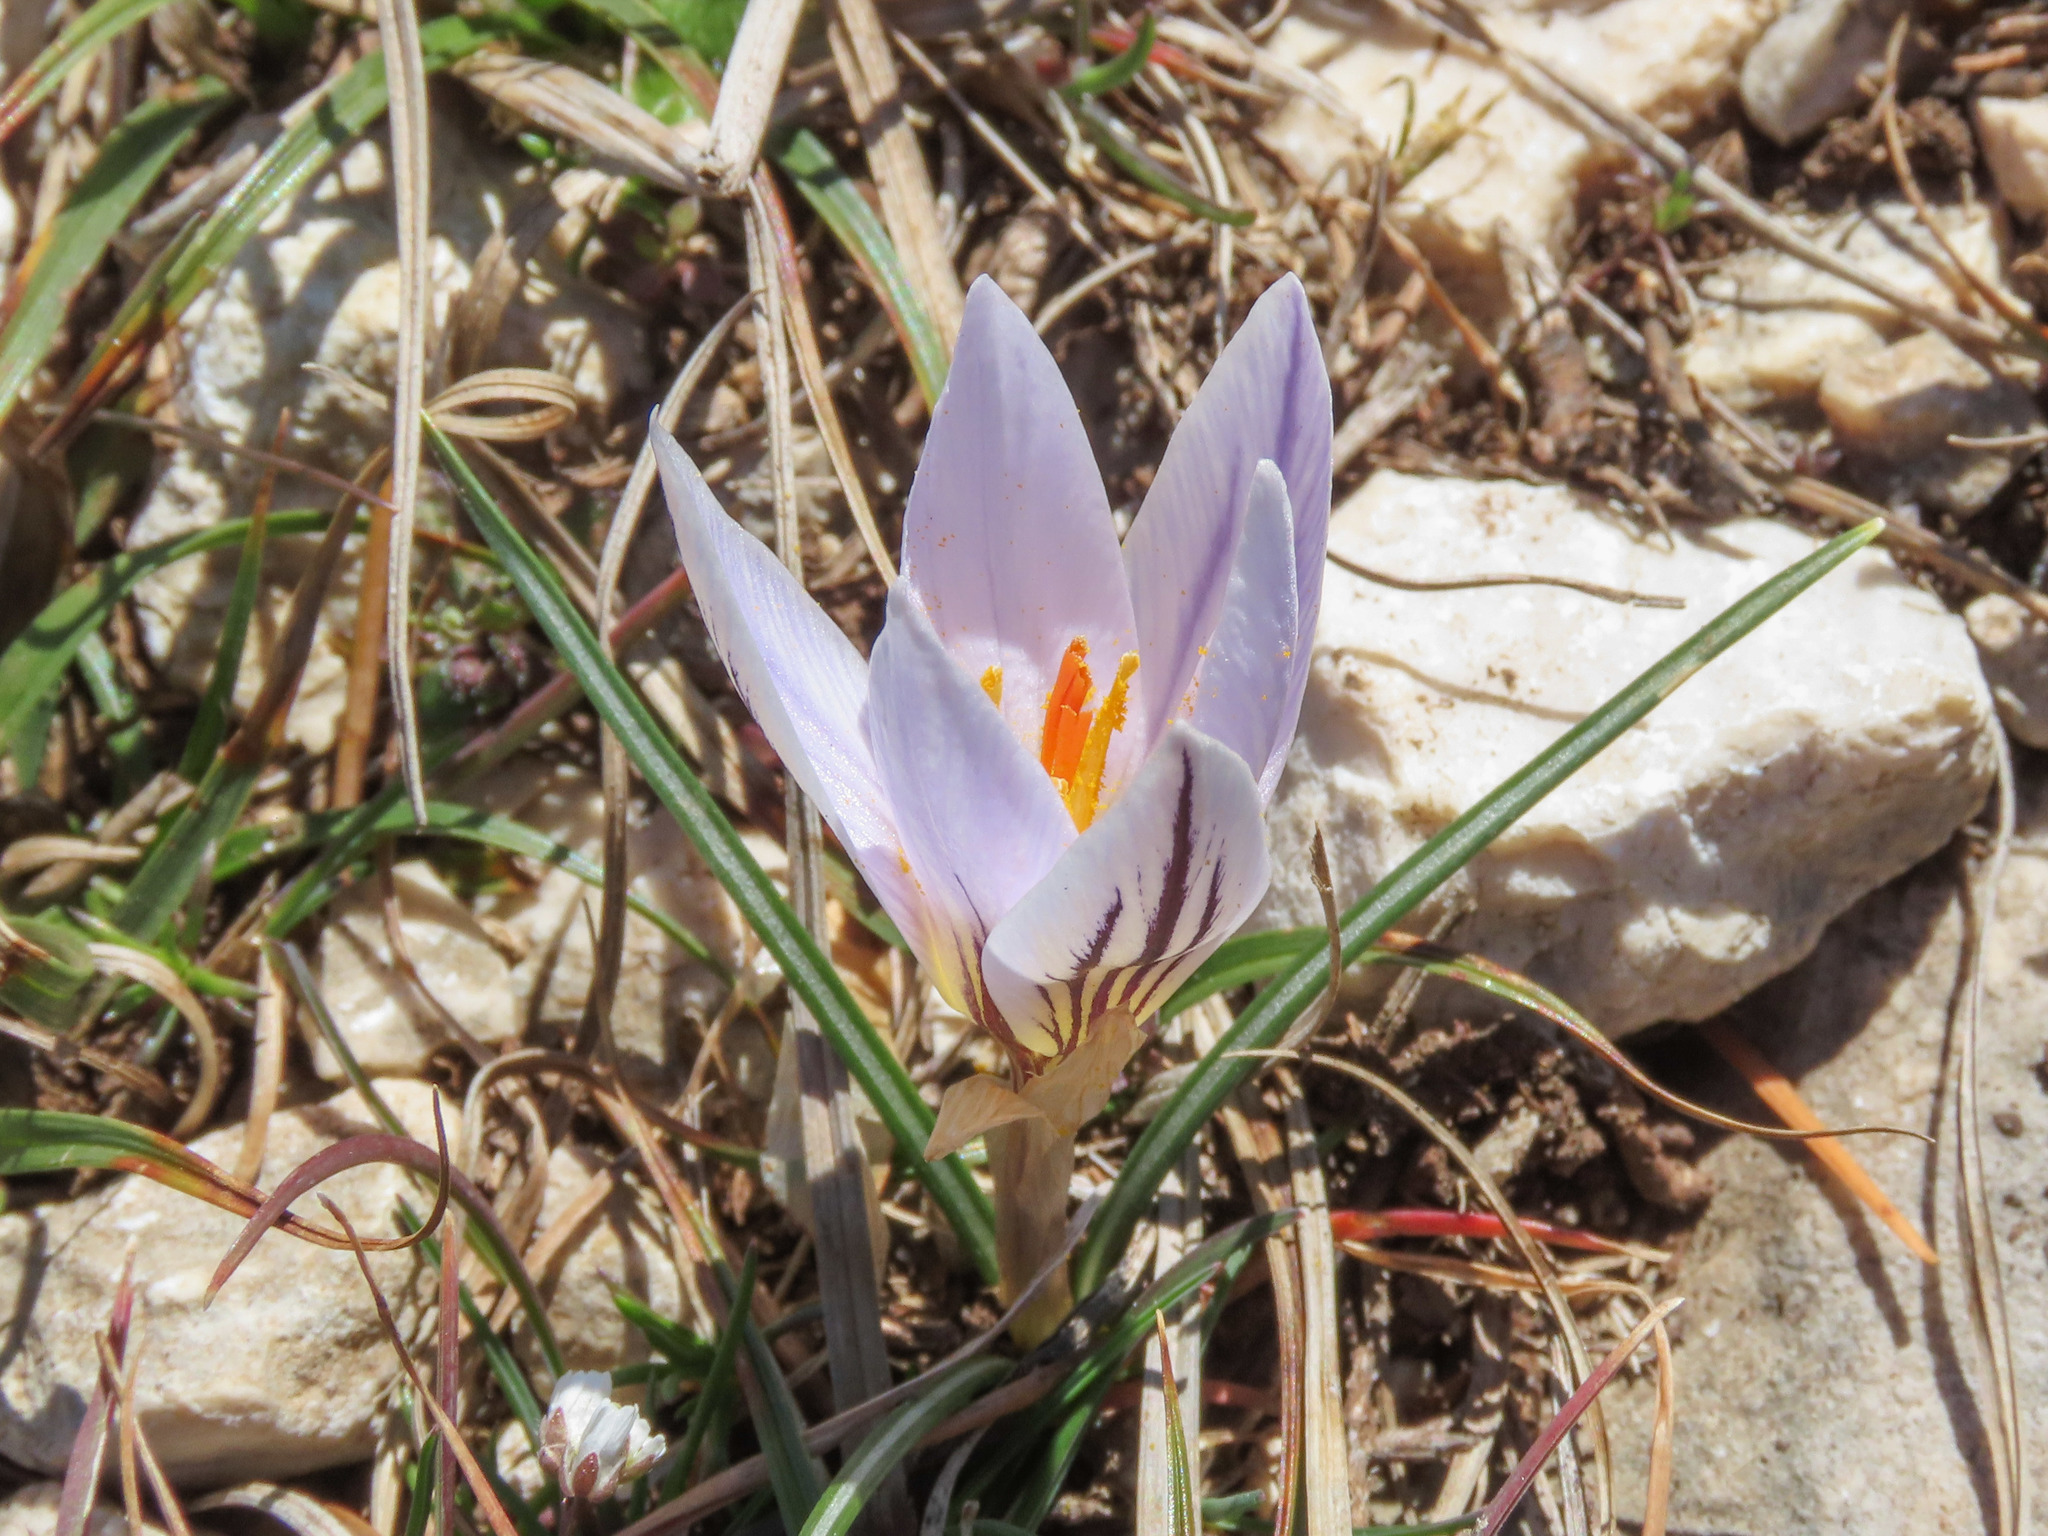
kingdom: Plantae
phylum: Tracheophyta
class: Liliopsida
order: Asparagales
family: Iridaceae
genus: Crocus
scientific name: Crocus variegatus
